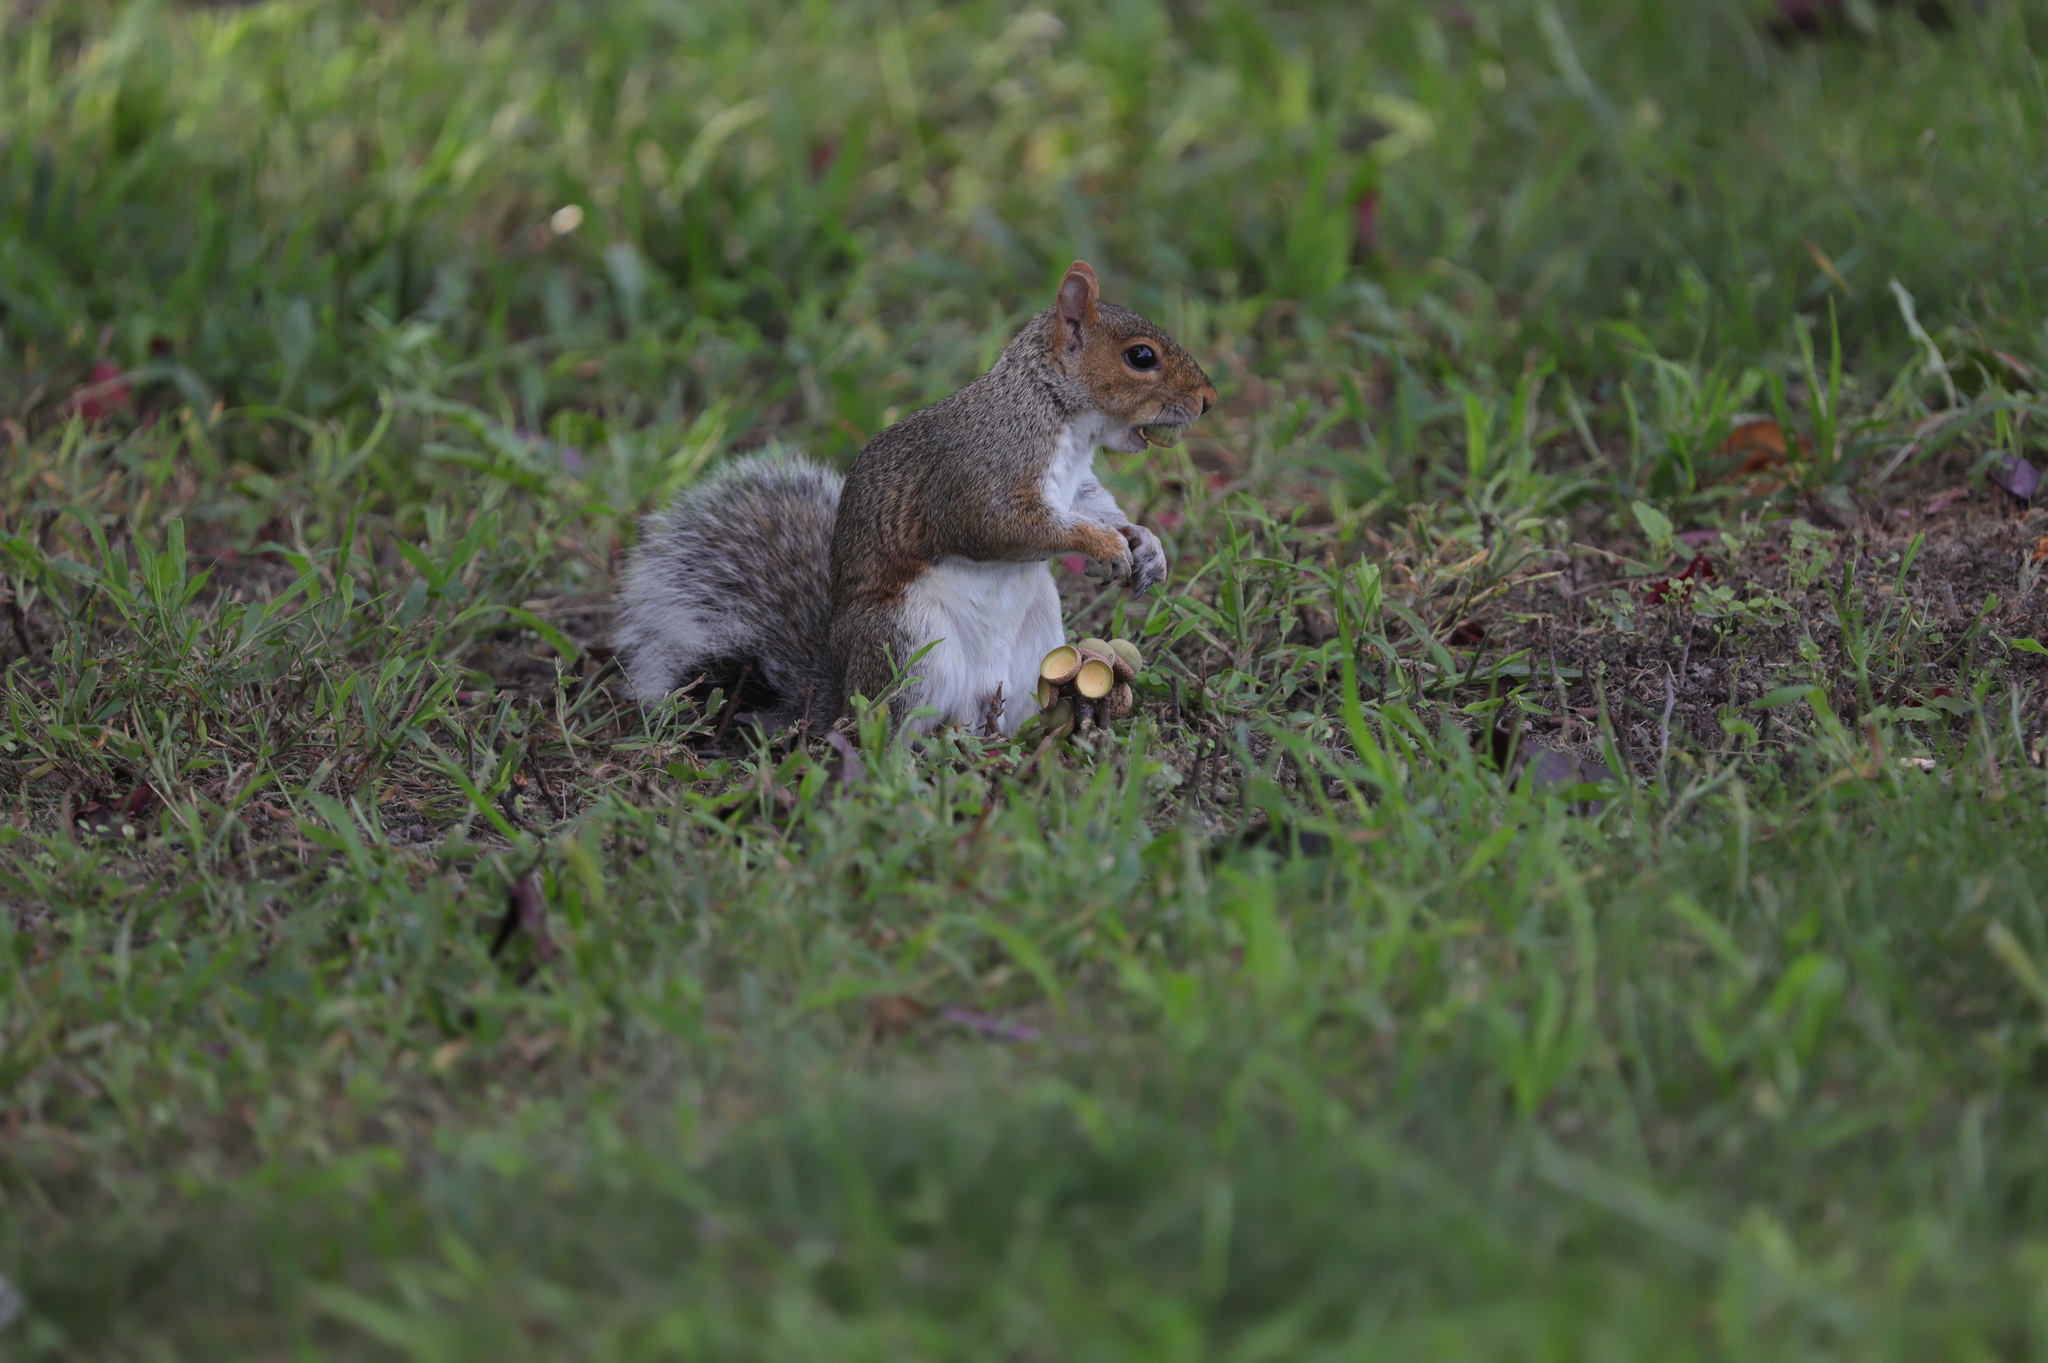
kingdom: Animalia
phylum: Chordata
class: Mammalia
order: Rodentia
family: Sciuridae
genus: Sciurus
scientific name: Sciurus carolinensis
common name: Eastern gray squirrel
